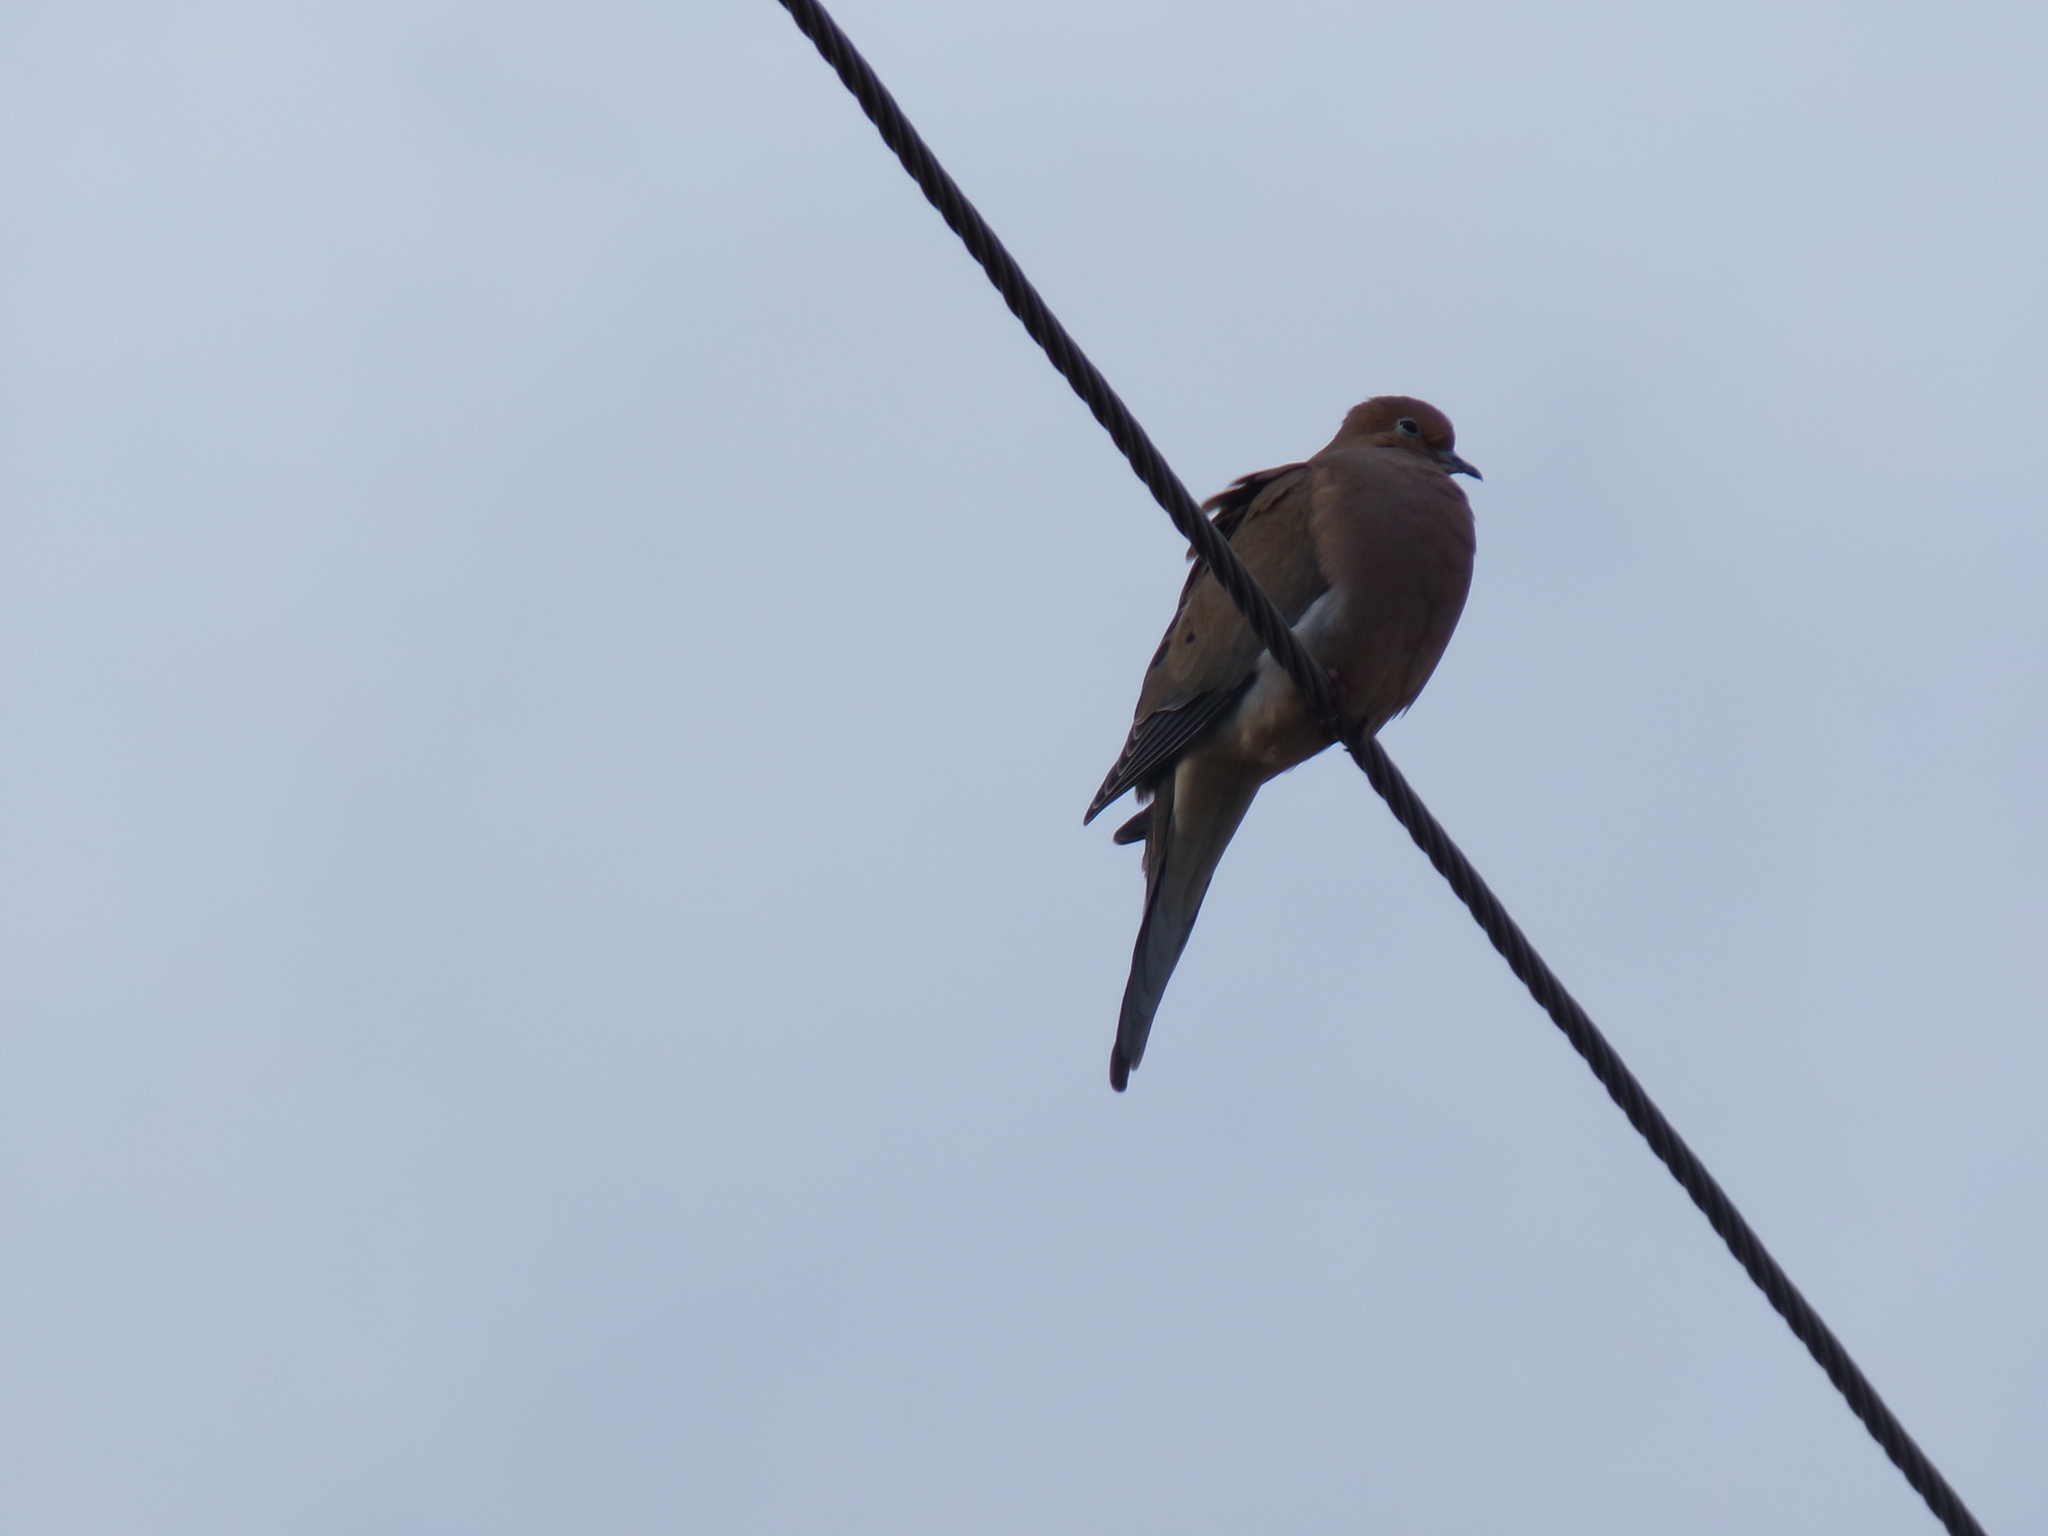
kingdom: Animalia
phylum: Chordata
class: Aves
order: Columbiformes
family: Columbidae
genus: Zenaida
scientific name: Zenaida macroura
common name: Mourning dove
